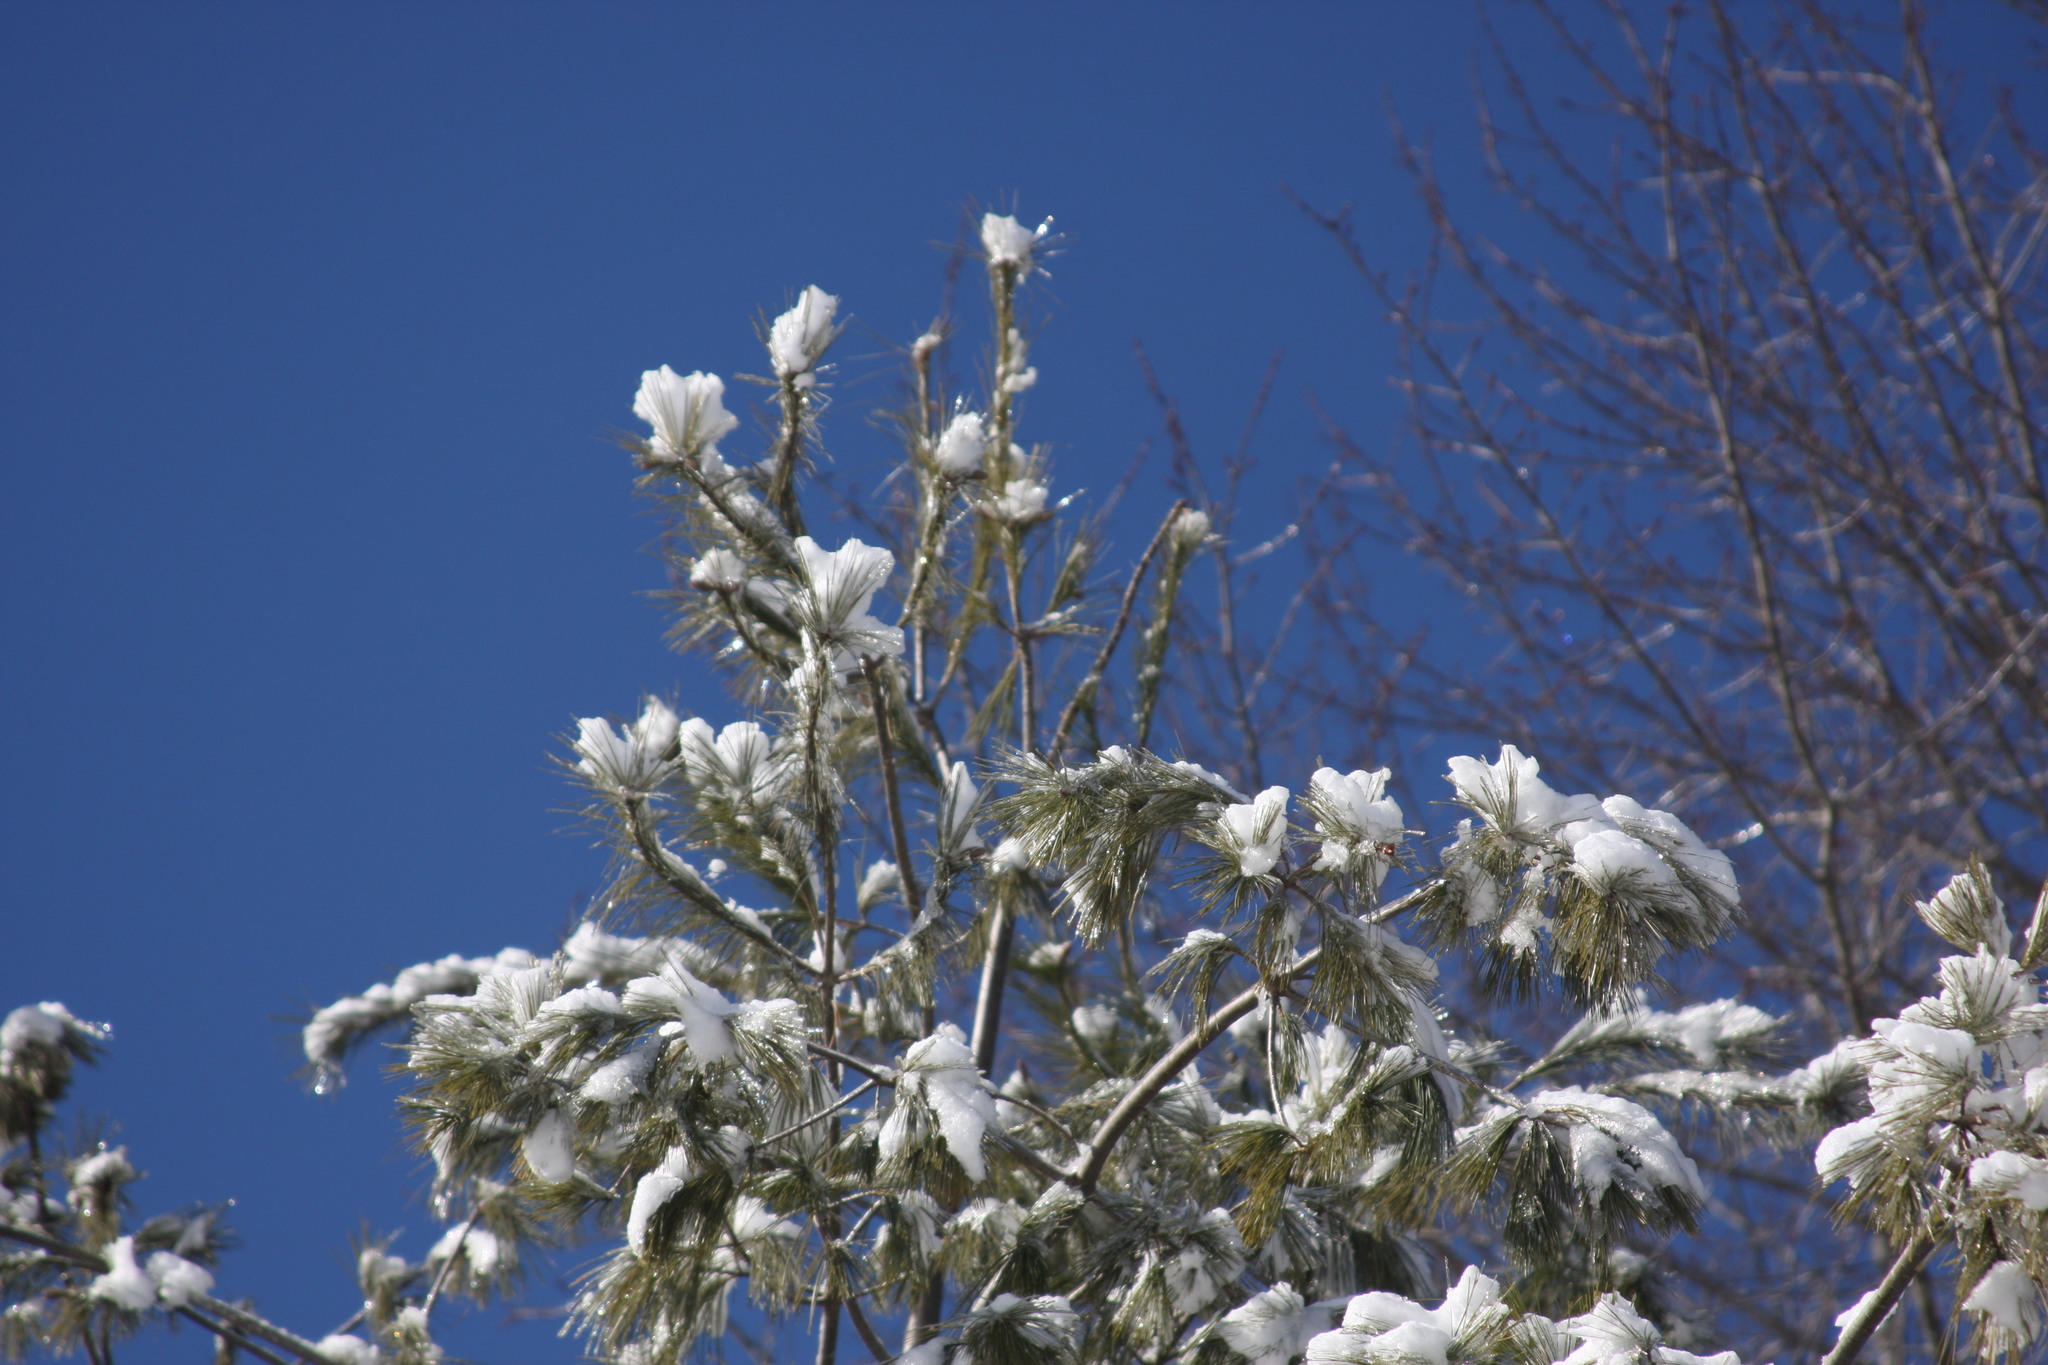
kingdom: Plantae
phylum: Tracheophyta
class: Pinopsida
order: Pinales
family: Pinaceae
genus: Pinus
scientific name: Pinus strobus
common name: Weymouth pine
